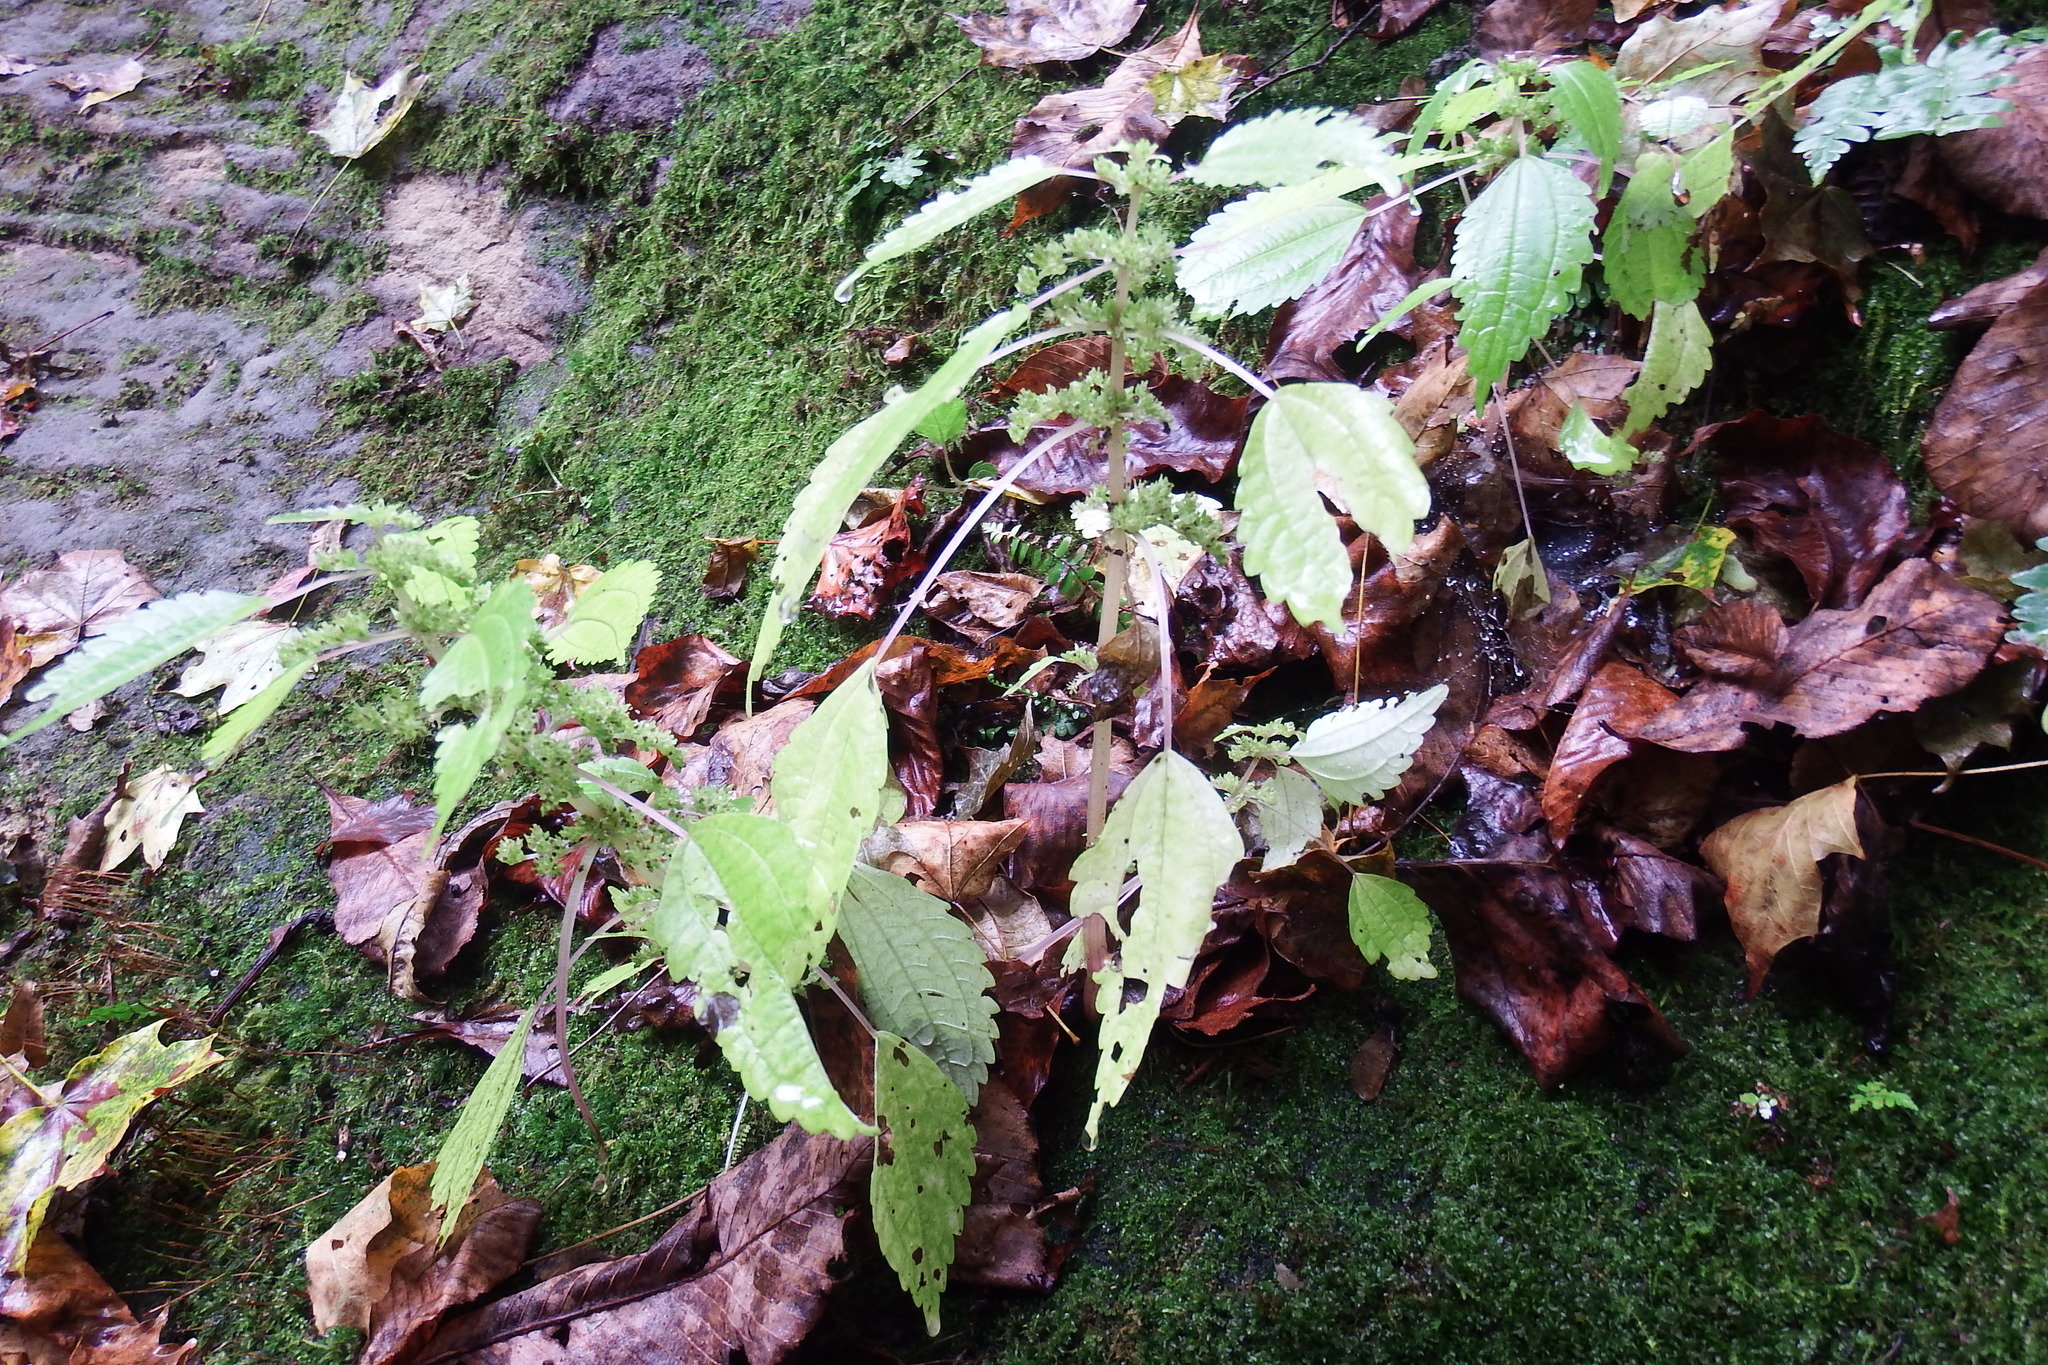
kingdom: Plantae
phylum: Tracheophyta
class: Magnoliopsida
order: Rosales
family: Urticaceae
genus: Pilea
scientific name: Pilea pumila
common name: Clearweed
